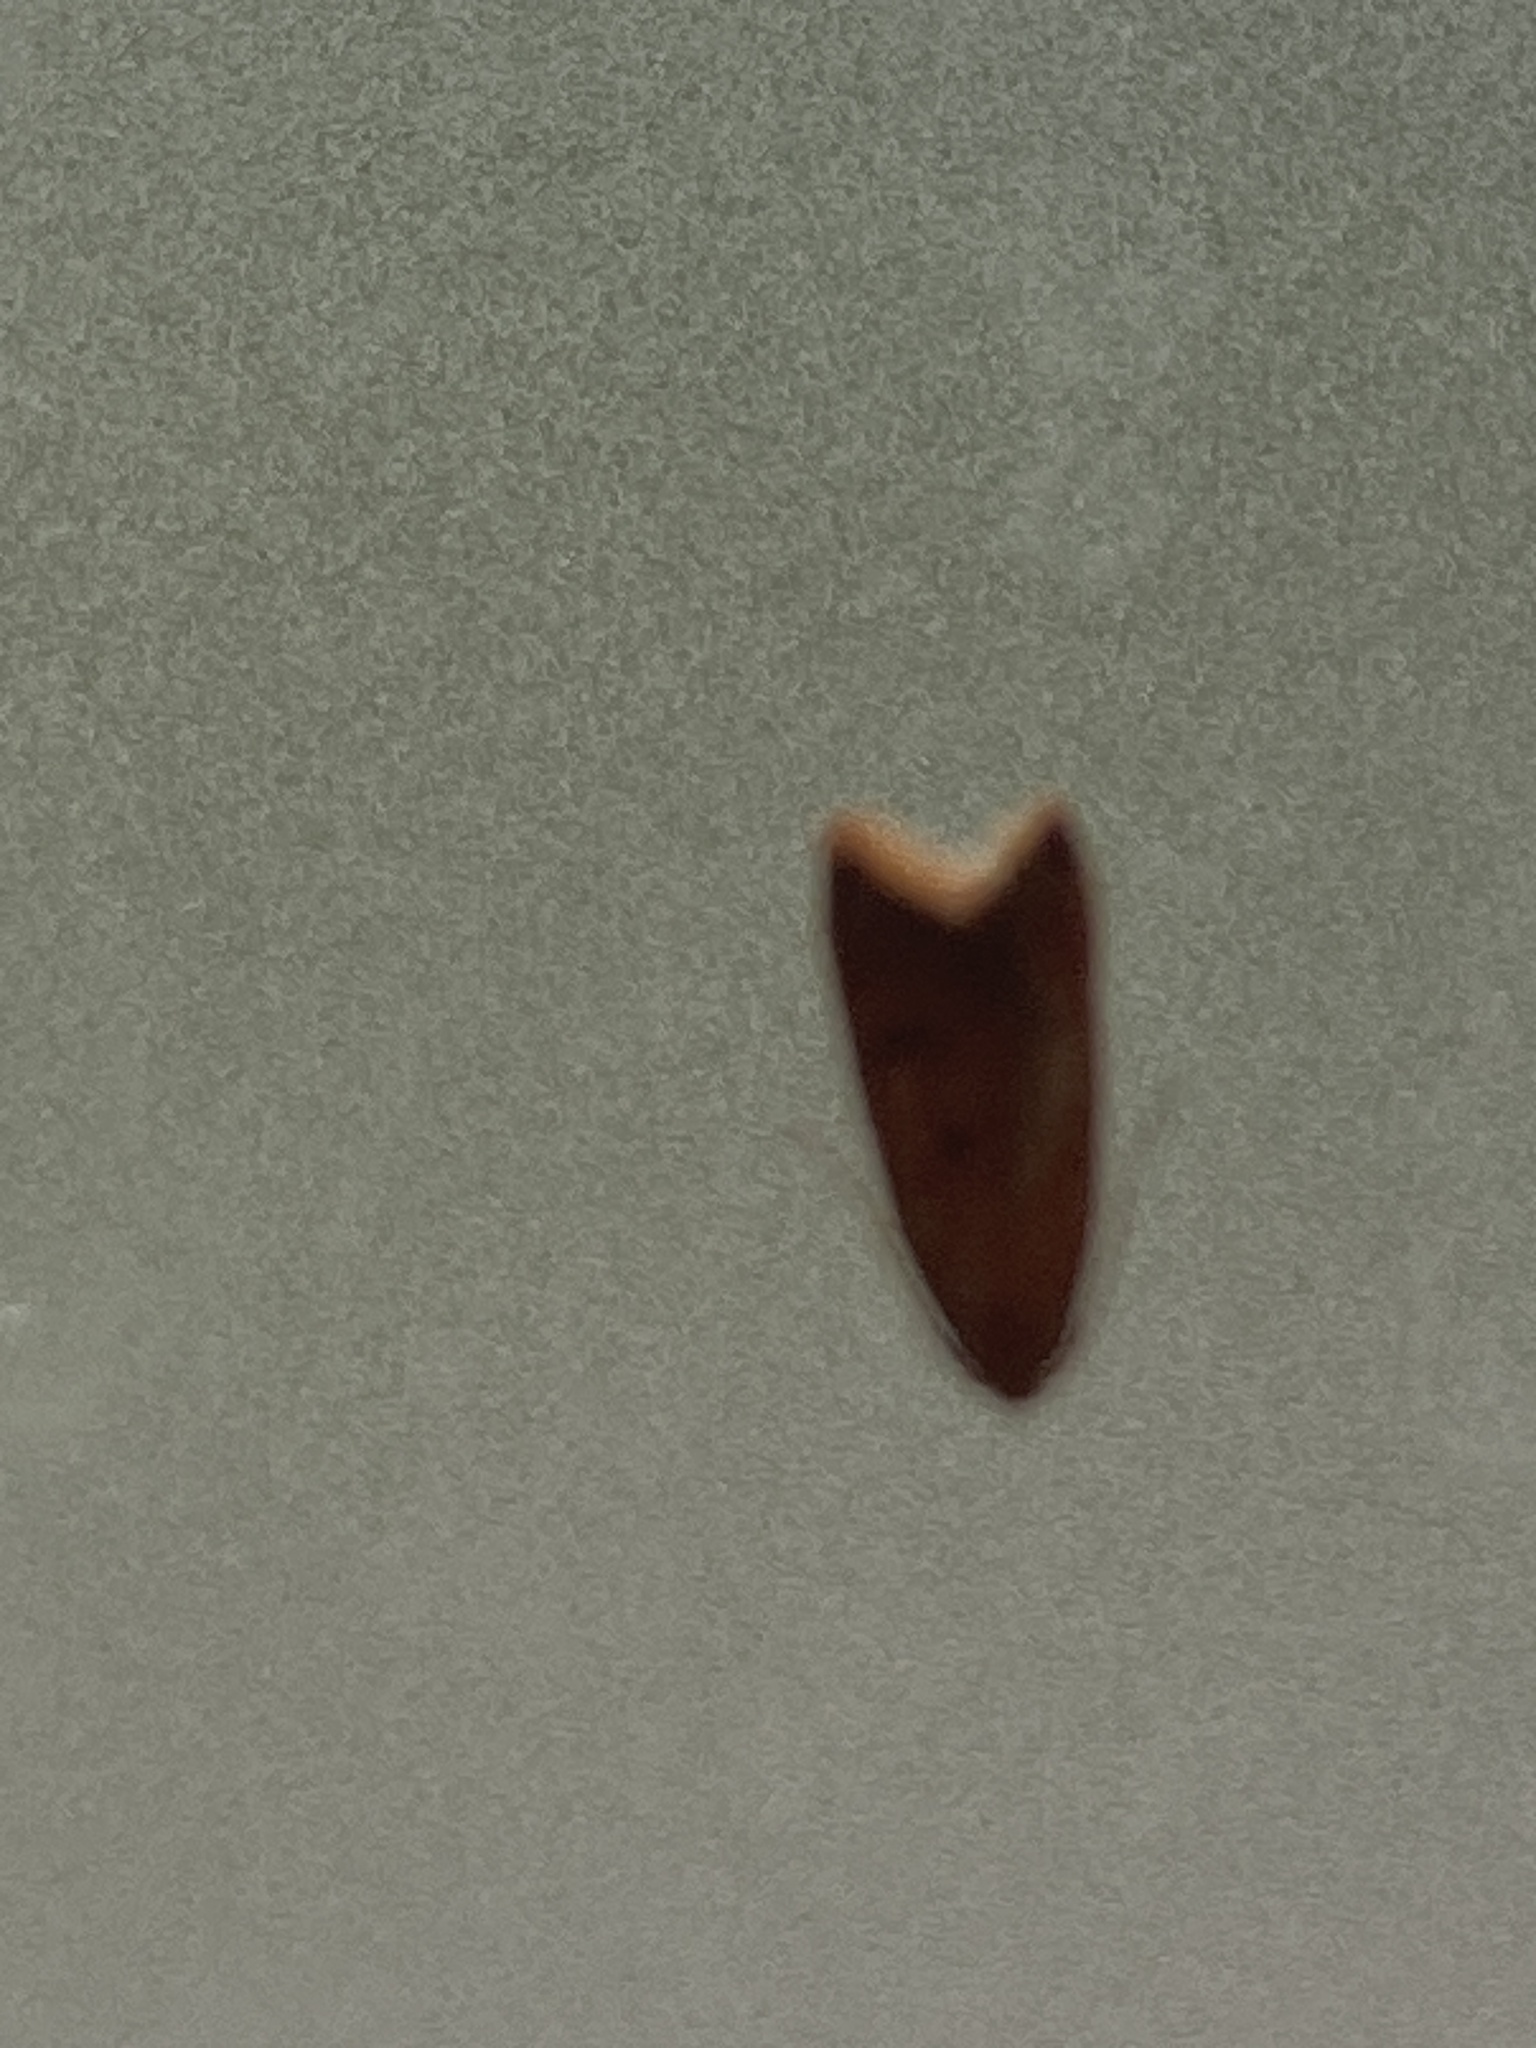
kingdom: Animalia
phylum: Arthropoda
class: Insecta
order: Lepidoptera
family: Oecophoridae
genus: Tachystola
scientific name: Tachystola acroxantha
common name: Ruddy streak
